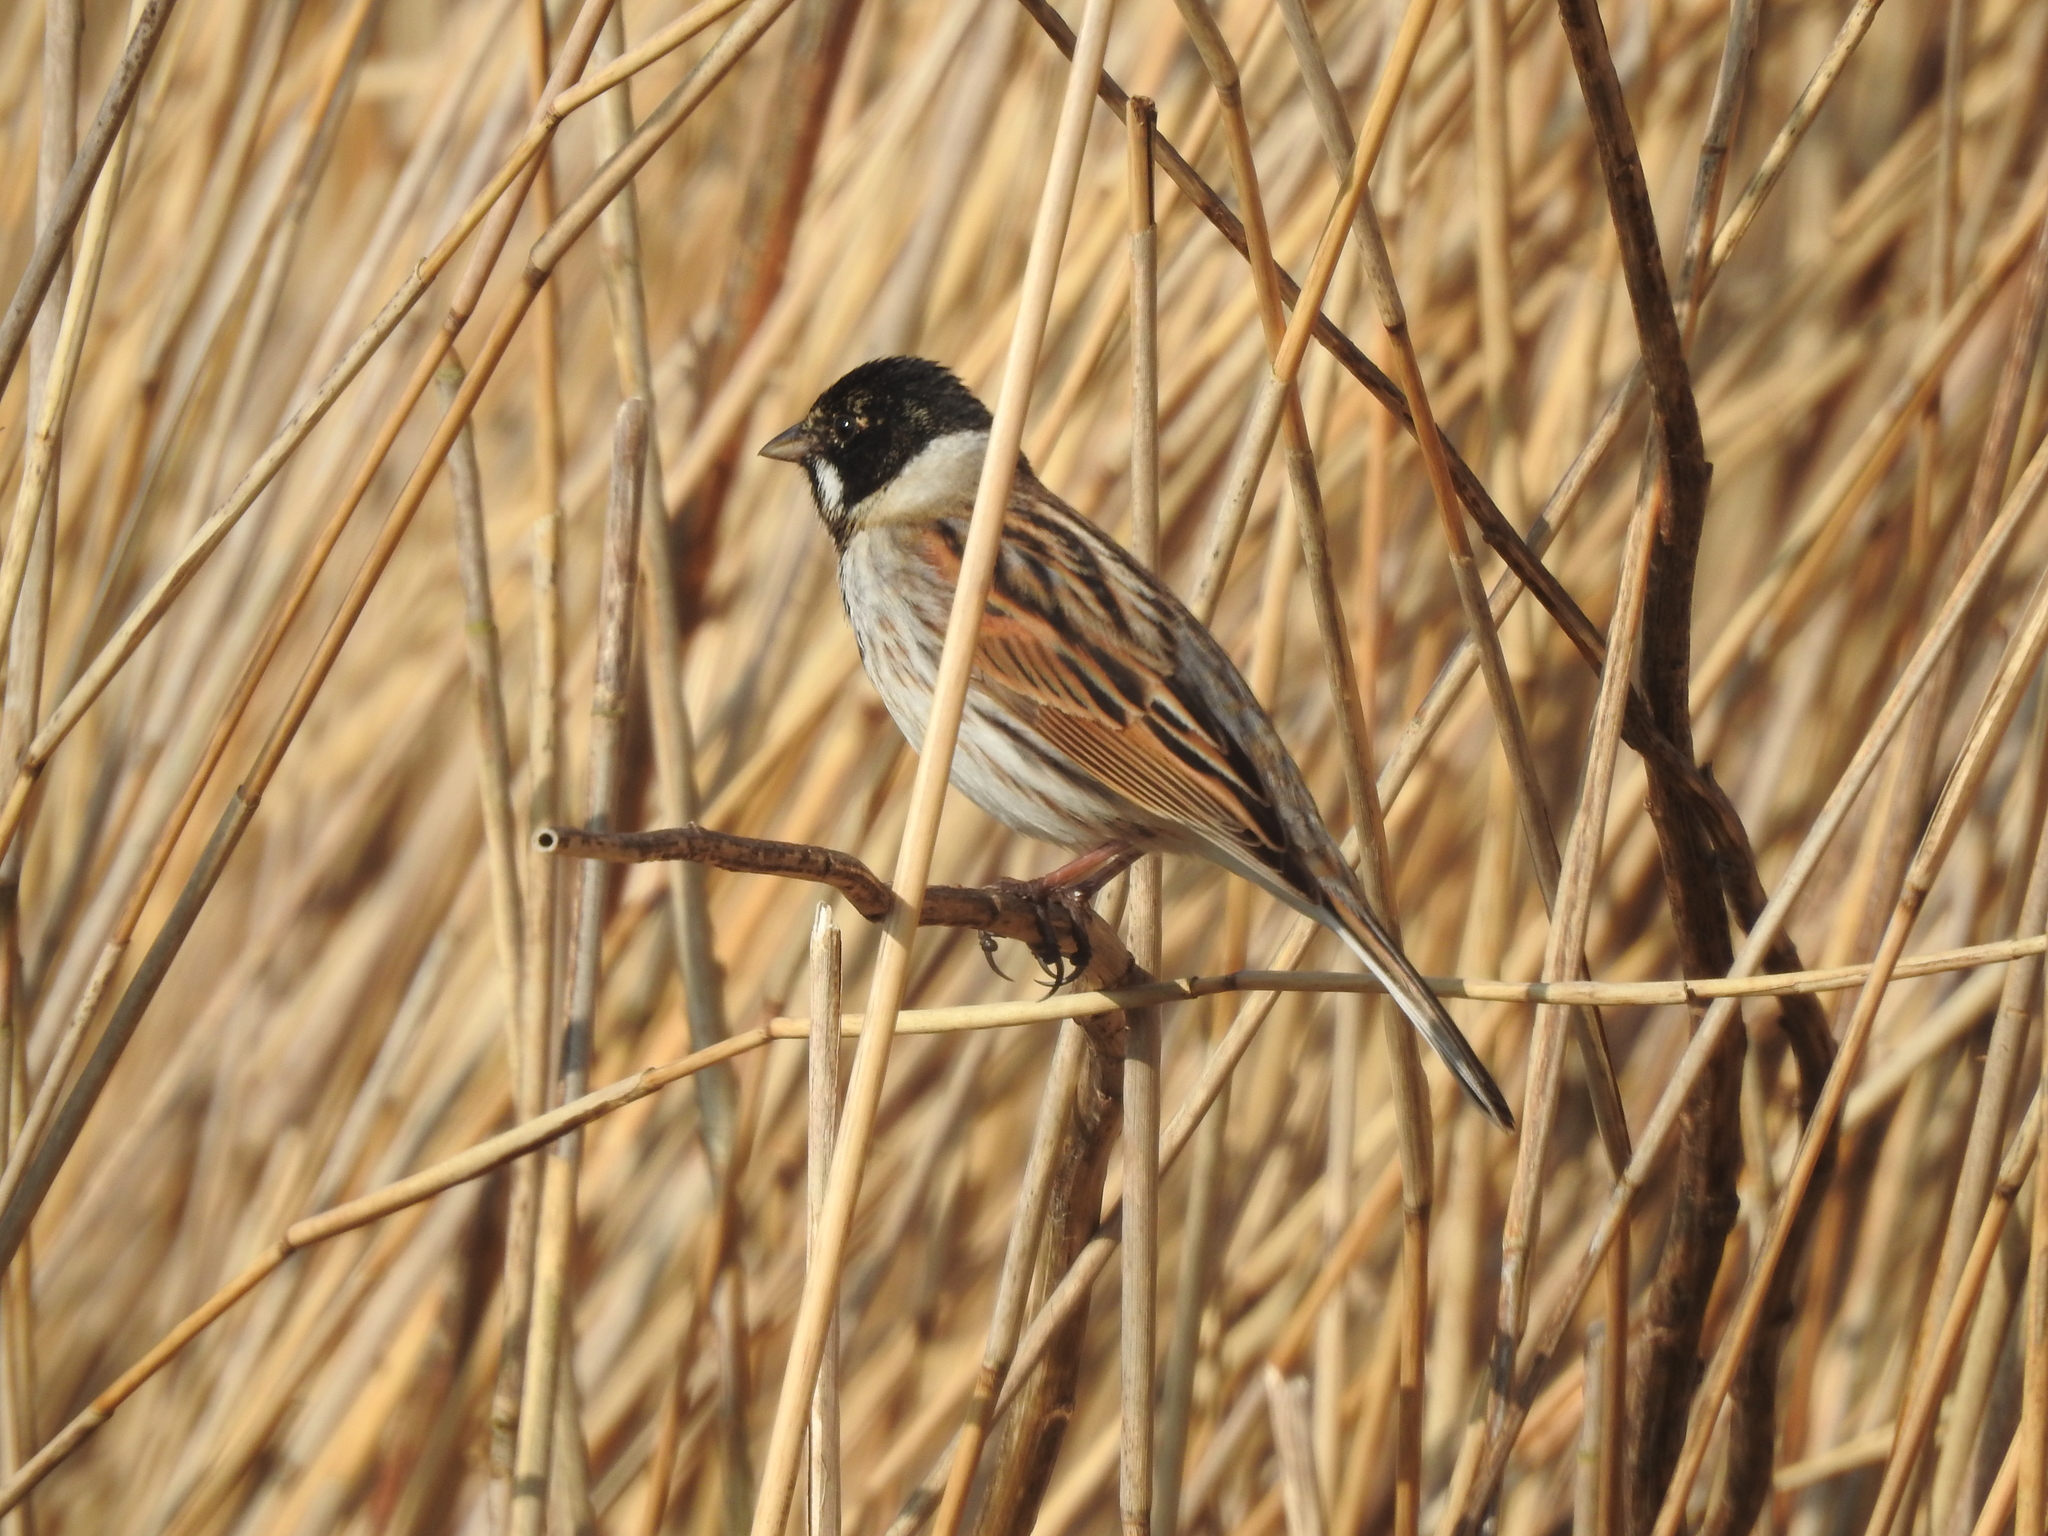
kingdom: Animalia
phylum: Chordata
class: Aves
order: Passeriformes
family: Emberizidae
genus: Emberiza
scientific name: Emberiza schoeniclus
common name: Reed bunting
